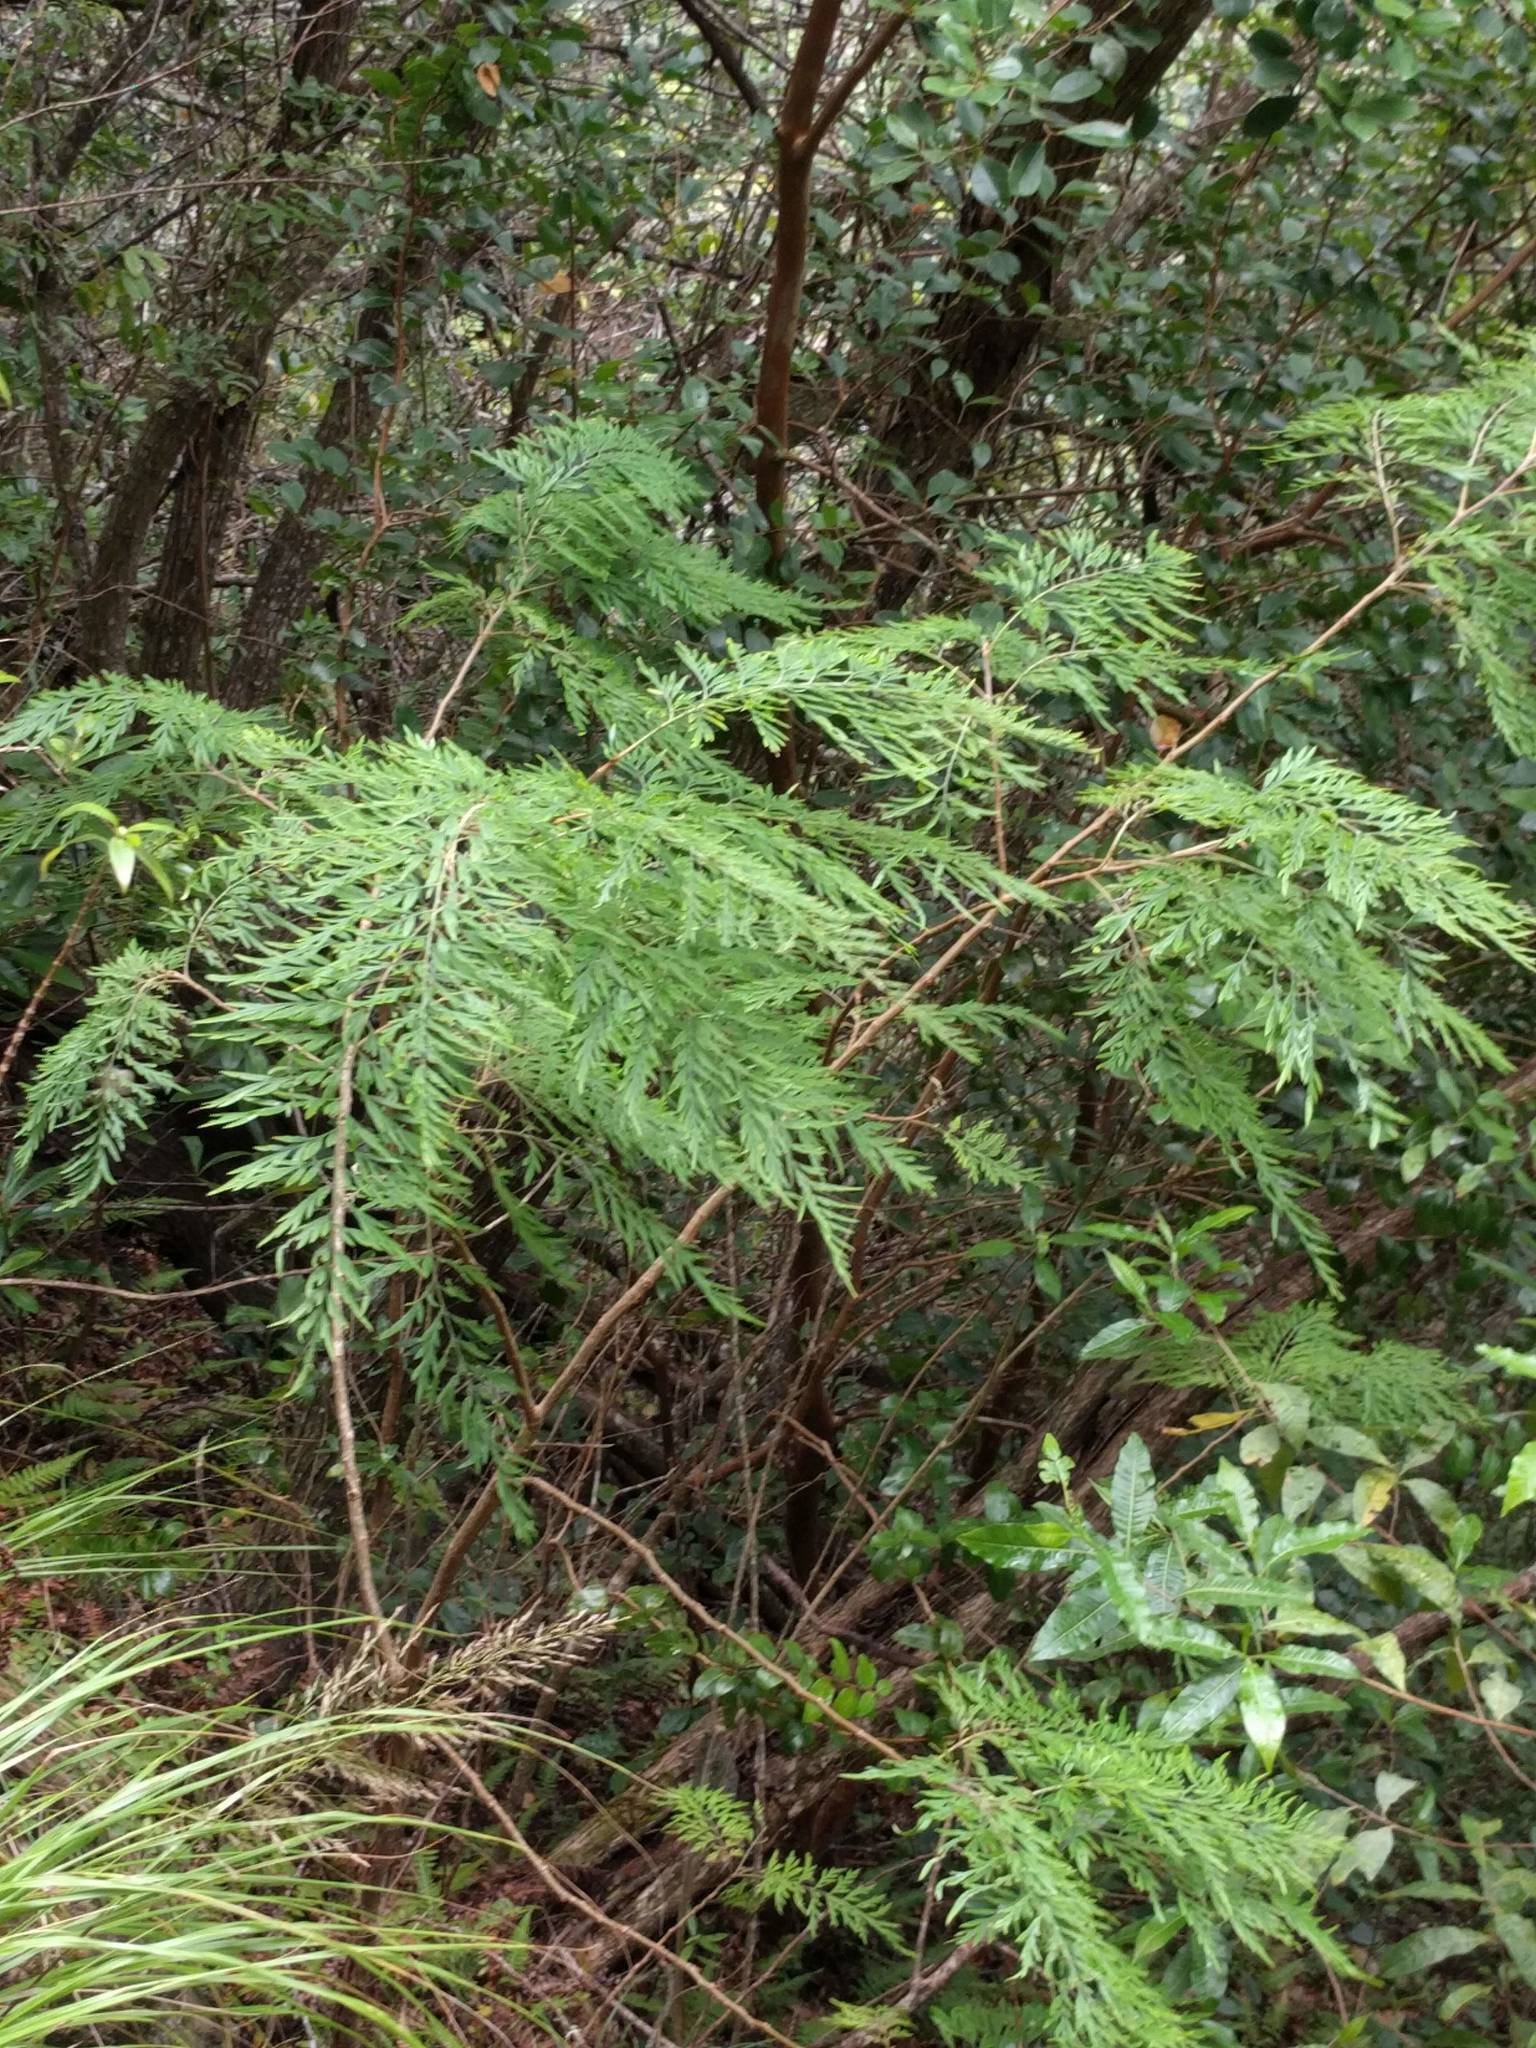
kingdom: Plantae
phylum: Tracheophyta
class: Magnoliopsida
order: Proteales
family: Proteaceae
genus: Grevillea
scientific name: Grevillea robusta
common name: Silkoak
